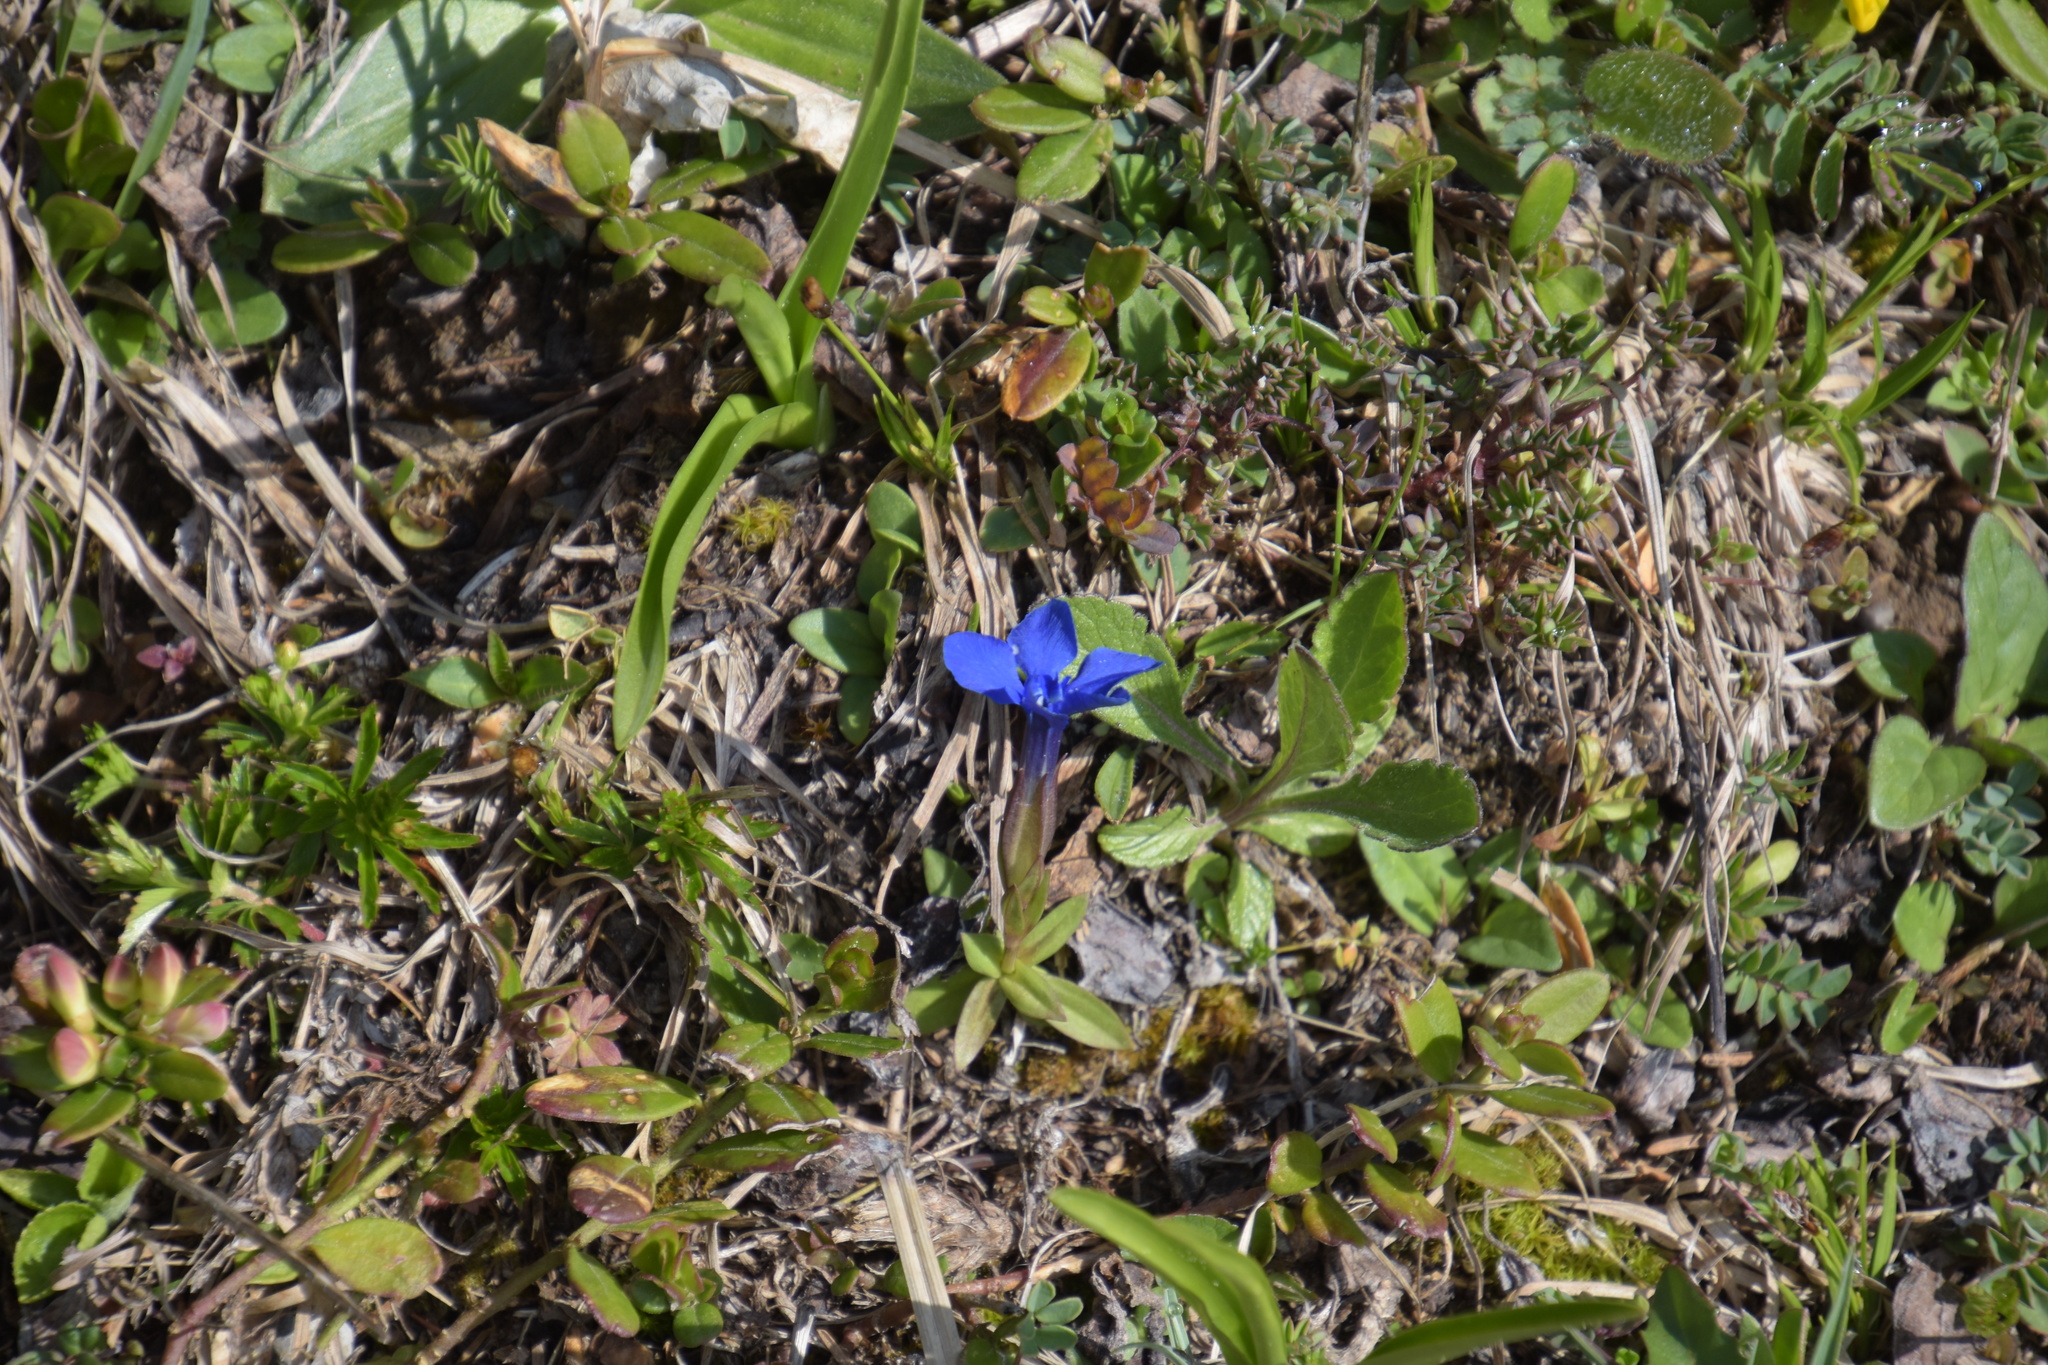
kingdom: Plantae
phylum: Tracheophyta
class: Magnoliopsida
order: Gentianales
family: Gentianaceae
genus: Gentiana
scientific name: Gentiana verna
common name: Spring gentian
